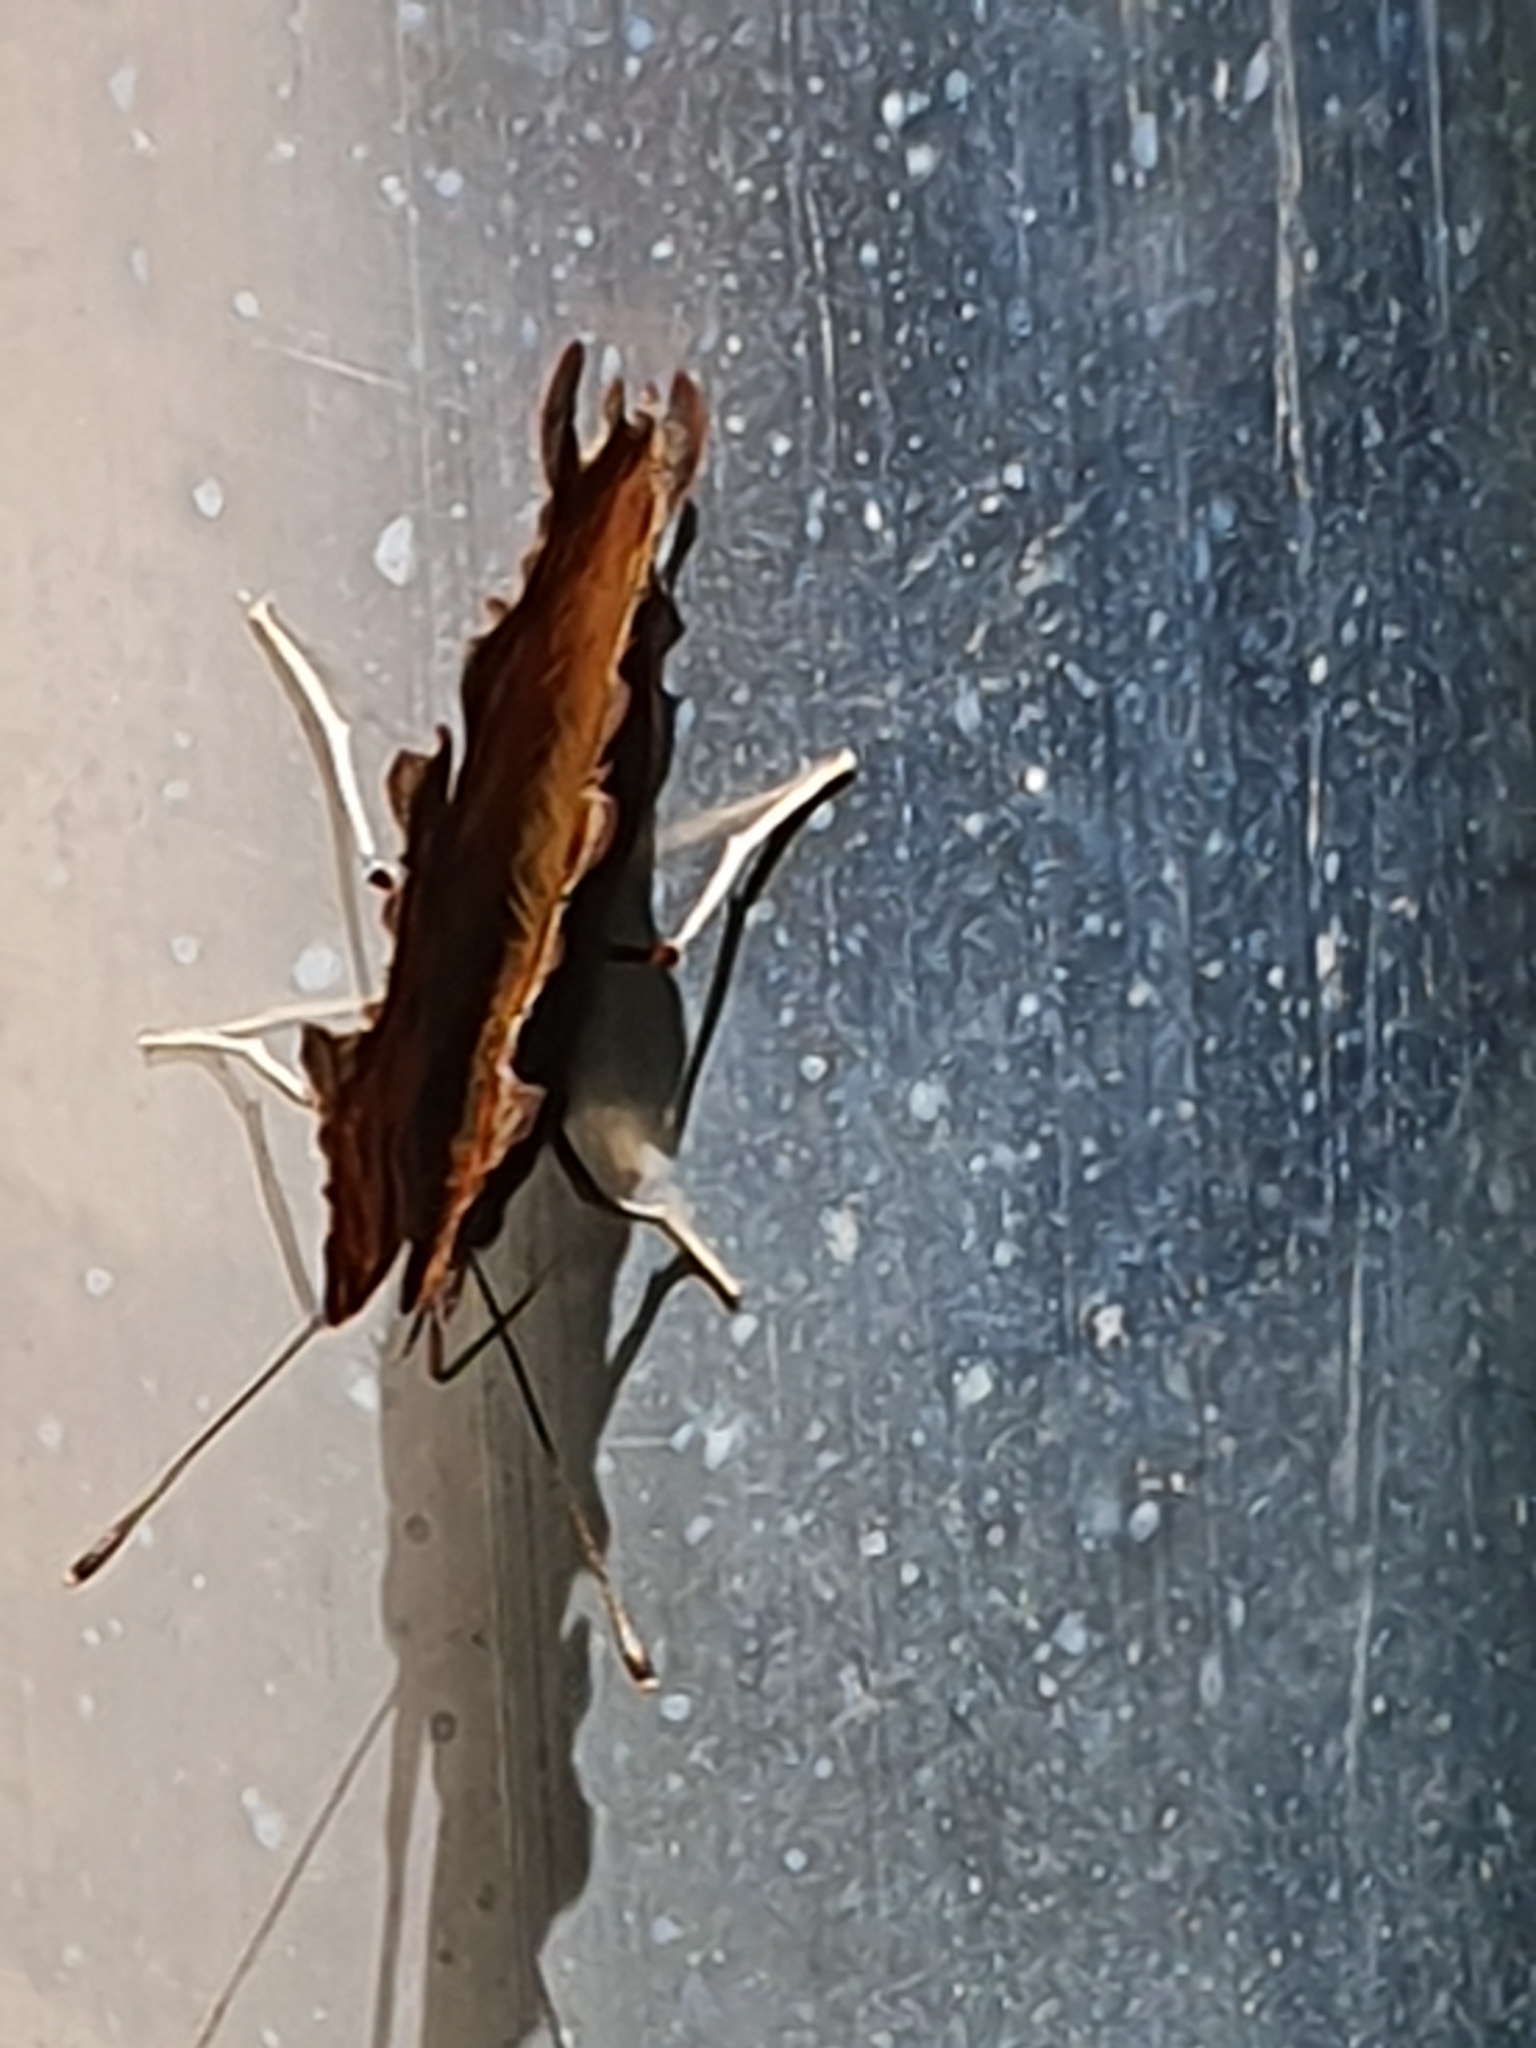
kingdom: Animalia
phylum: Arthropoda
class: Insecta
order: Lepidoptera
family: Nymphalidae
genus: Polygonia
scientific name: Polygonia c-album
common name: Comma
